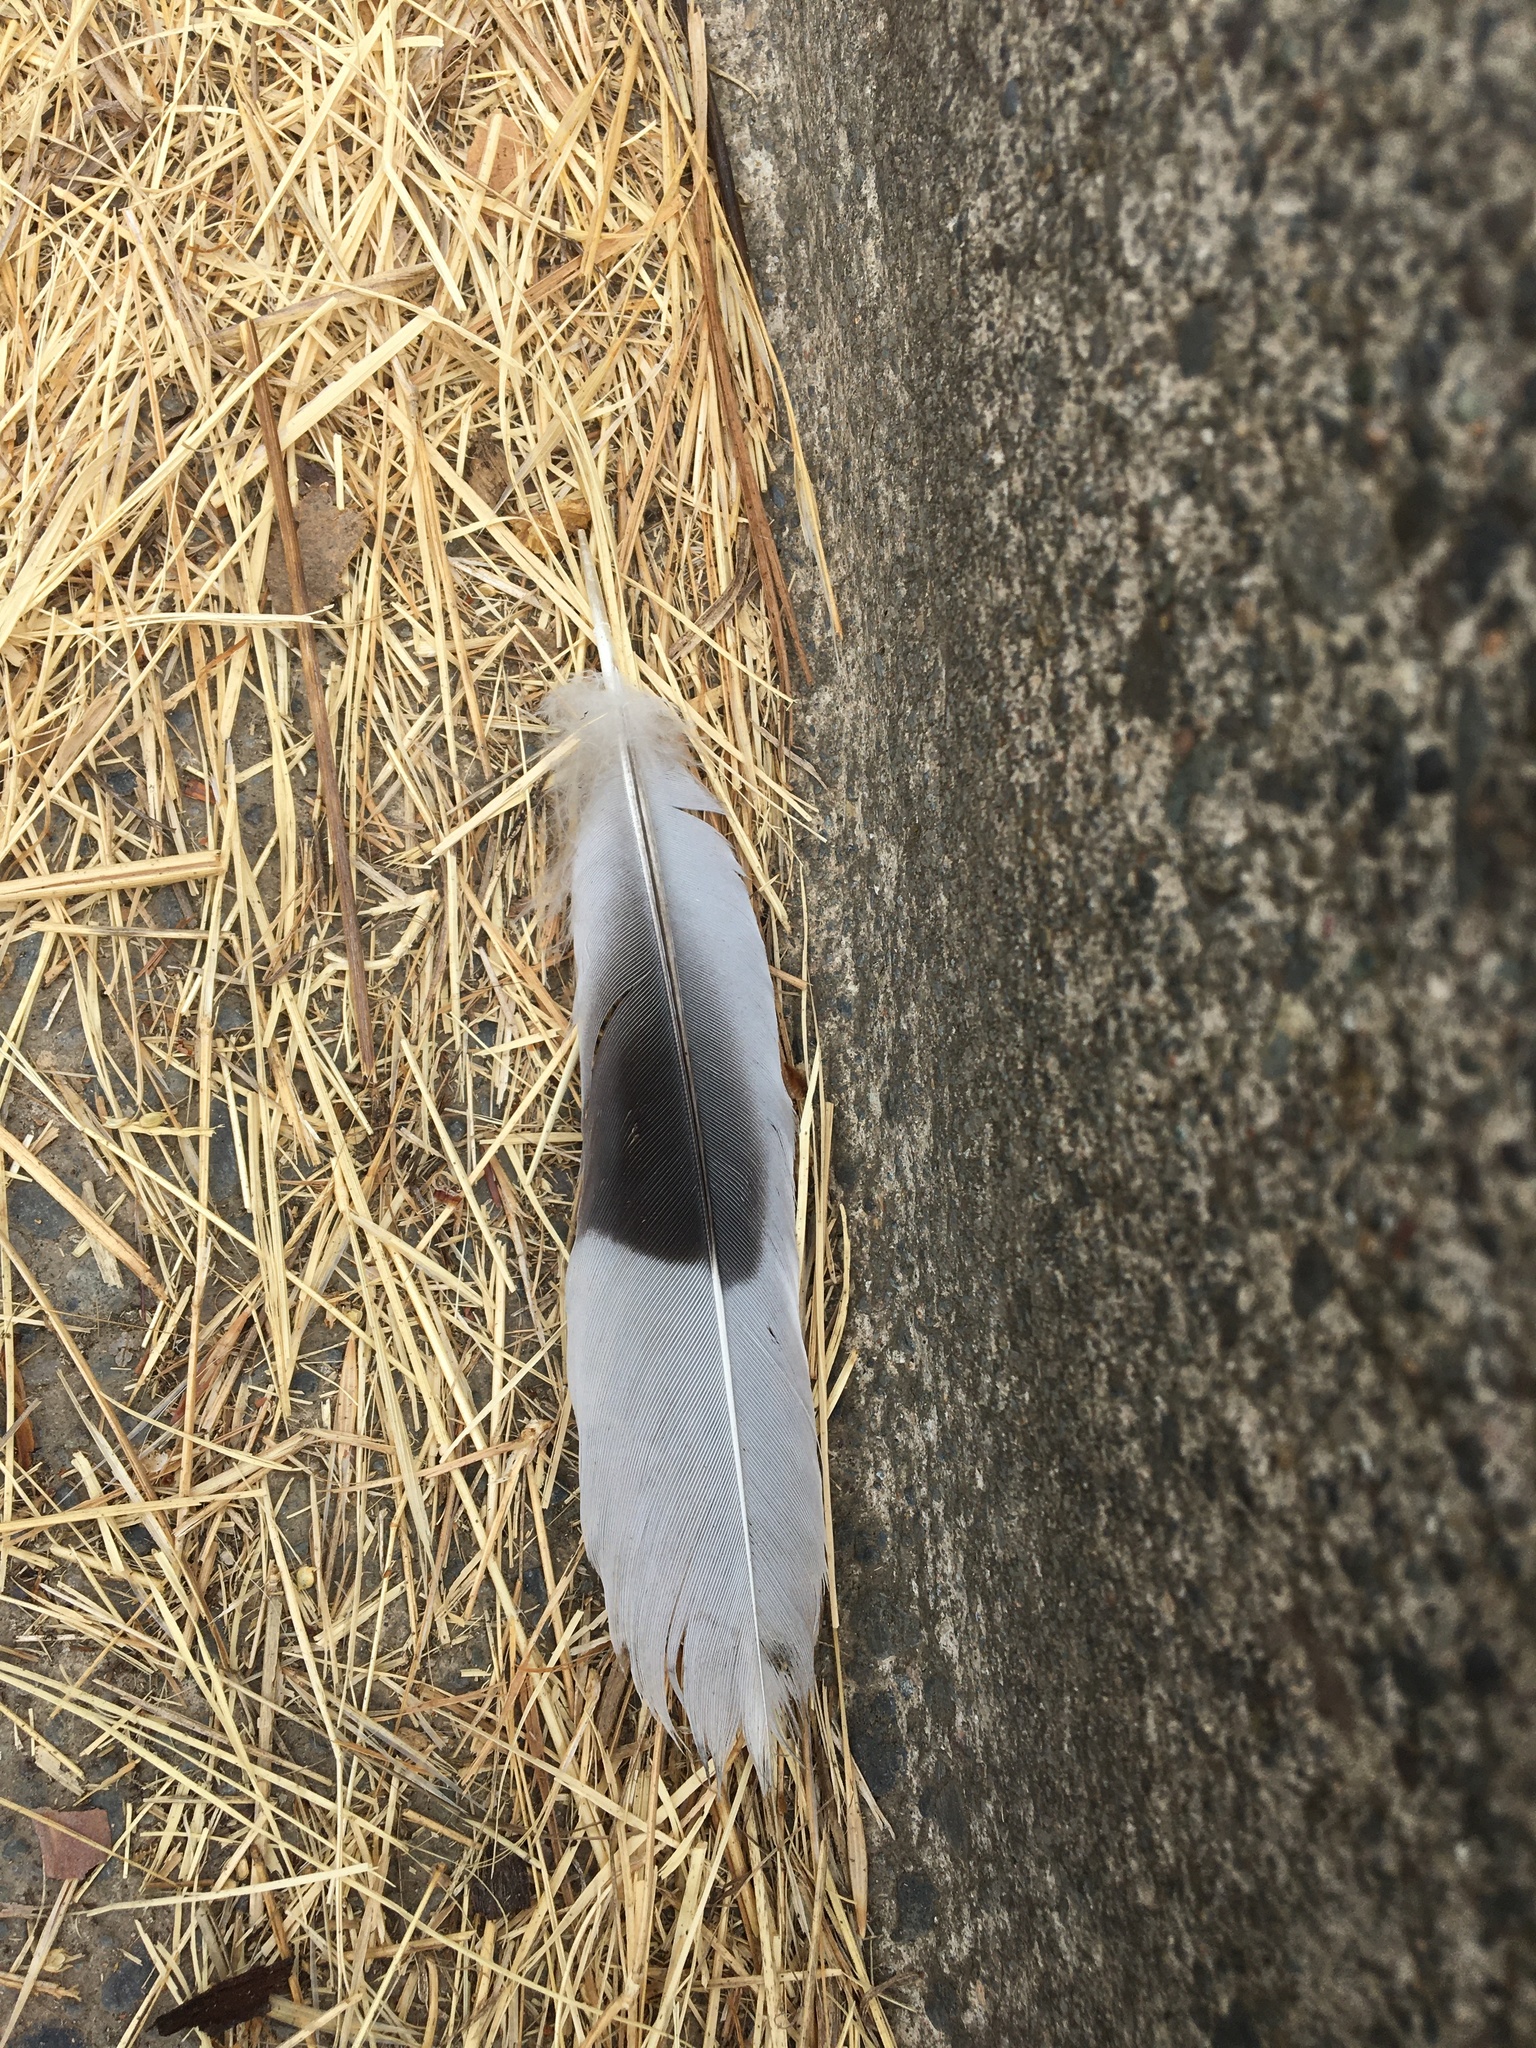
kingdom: Animalia
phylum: Chordata
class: Aves
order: Columbiformes
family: Columbidae
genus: Streptopelia
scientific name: Streptopelia decaocto
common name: Eurasian collared dove
